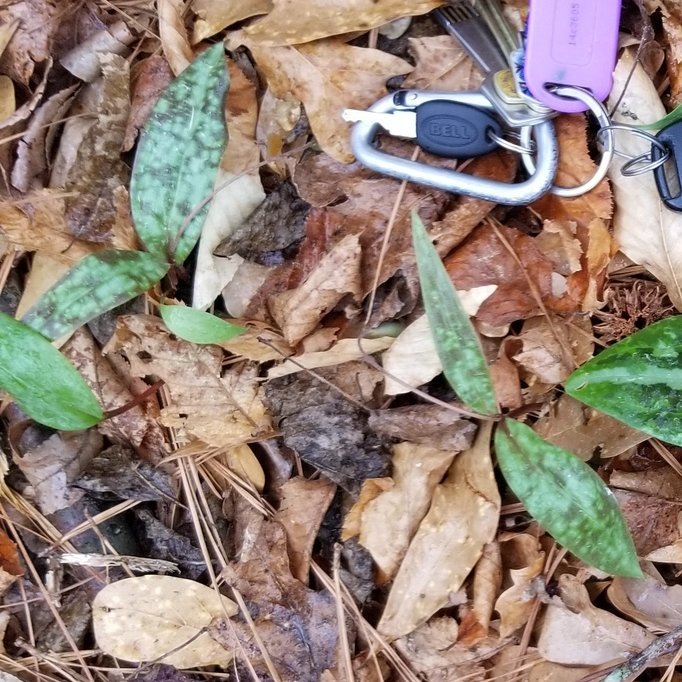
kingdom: Plantae
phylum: Tracheophyta
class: Liliopsida
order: Liliales
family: Liliaceae
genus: Erythronium
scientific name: Erythronium umbilicatum
